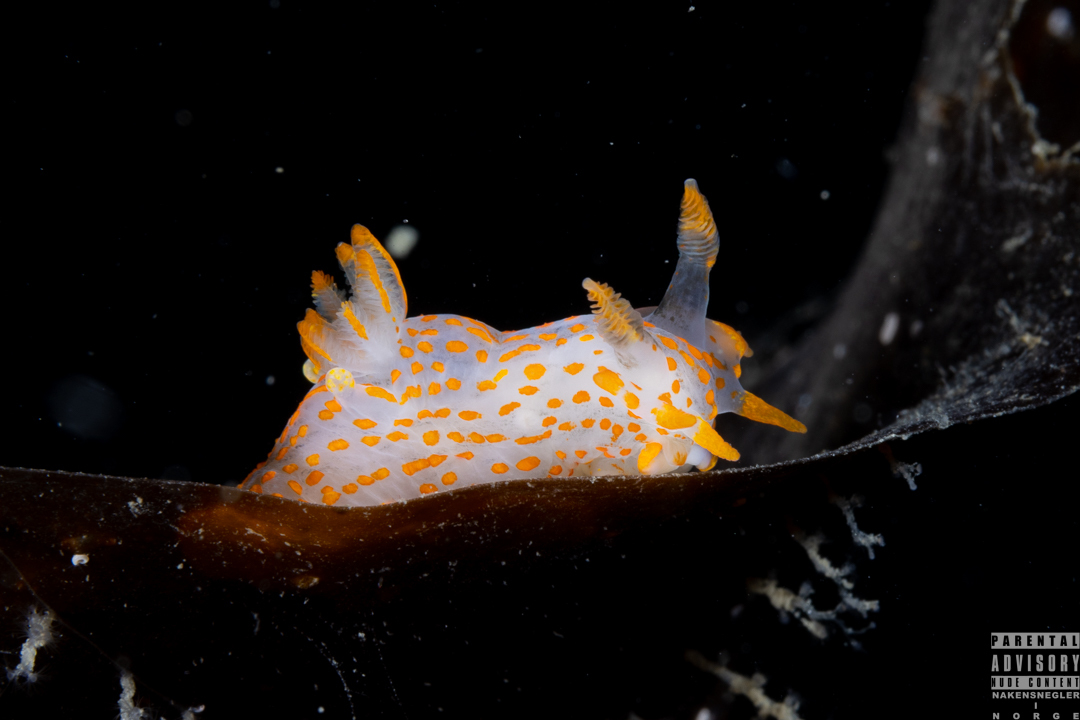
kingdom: Animalia
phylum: Mollusca
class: Gastropoda
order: Nudibranchia
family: Polyceridae
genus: Polycera
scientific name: Polycera quadrilineata
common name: Four-striped polycera
